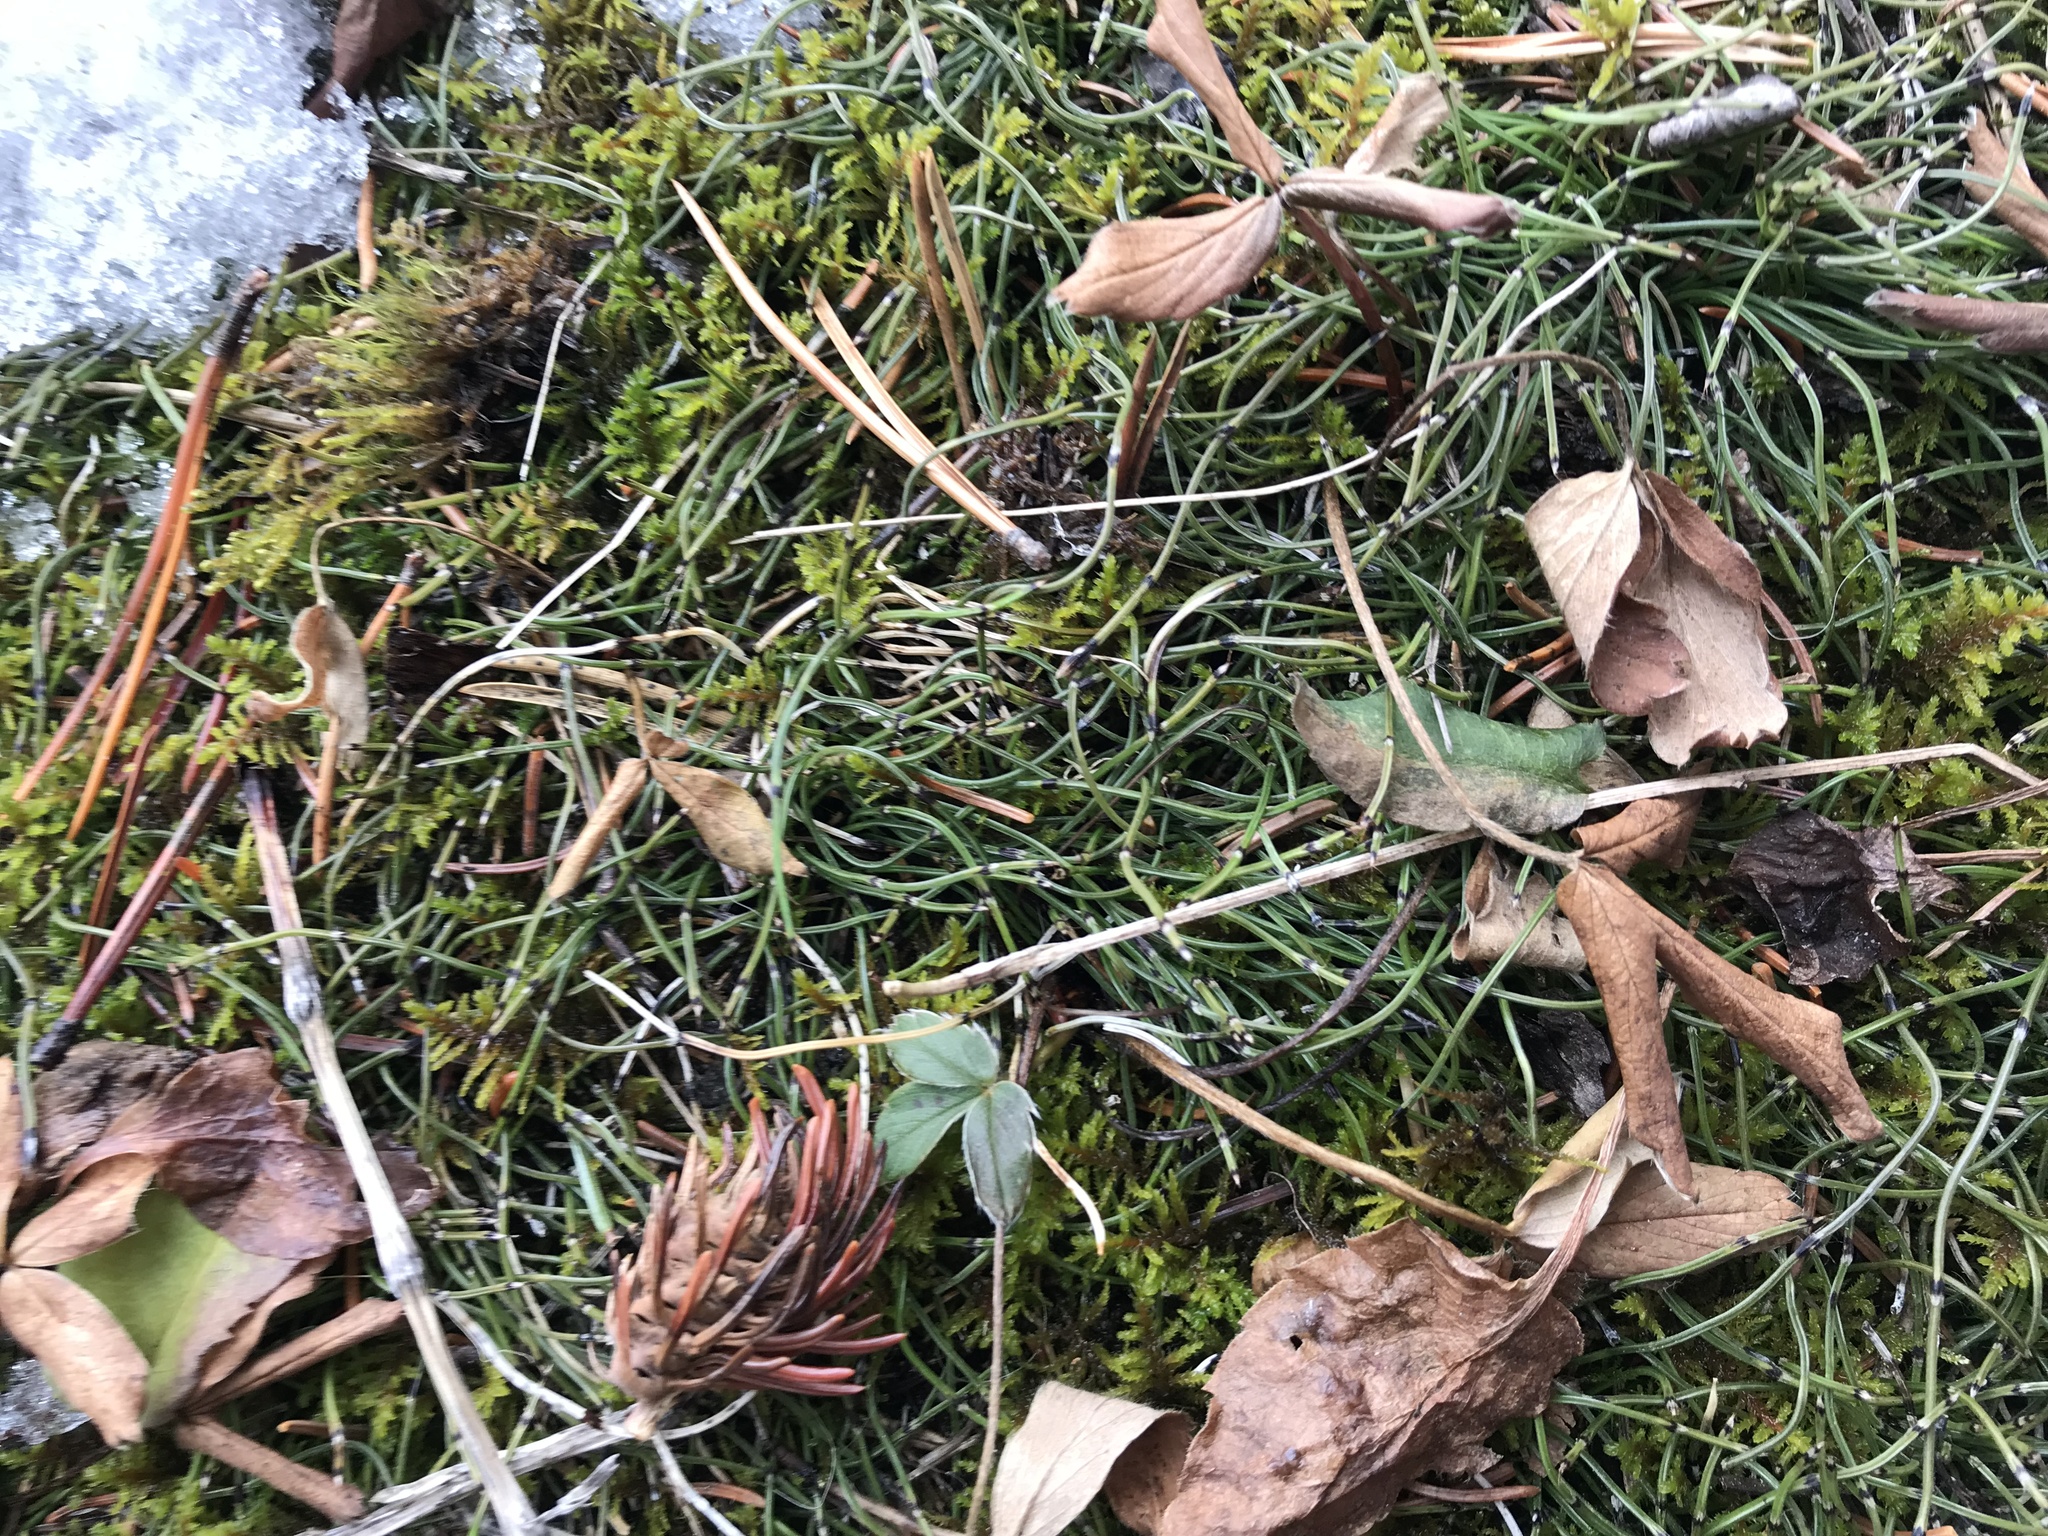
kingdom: Plantae
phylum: Tracheophyta
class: Polypodiopsida
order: Equisetales
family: Equisetaceae
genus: Equisetum
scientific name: Equisetum scirpoides
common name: Delicate horsetail
